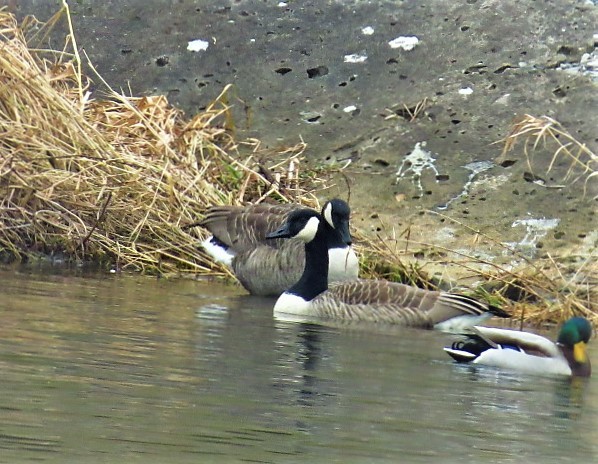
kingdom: Animalia
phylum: Chordata
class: Aves
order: Anseriformes
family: Anatidae
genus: Branta
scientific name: Branta canadensis
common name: Canada goose
